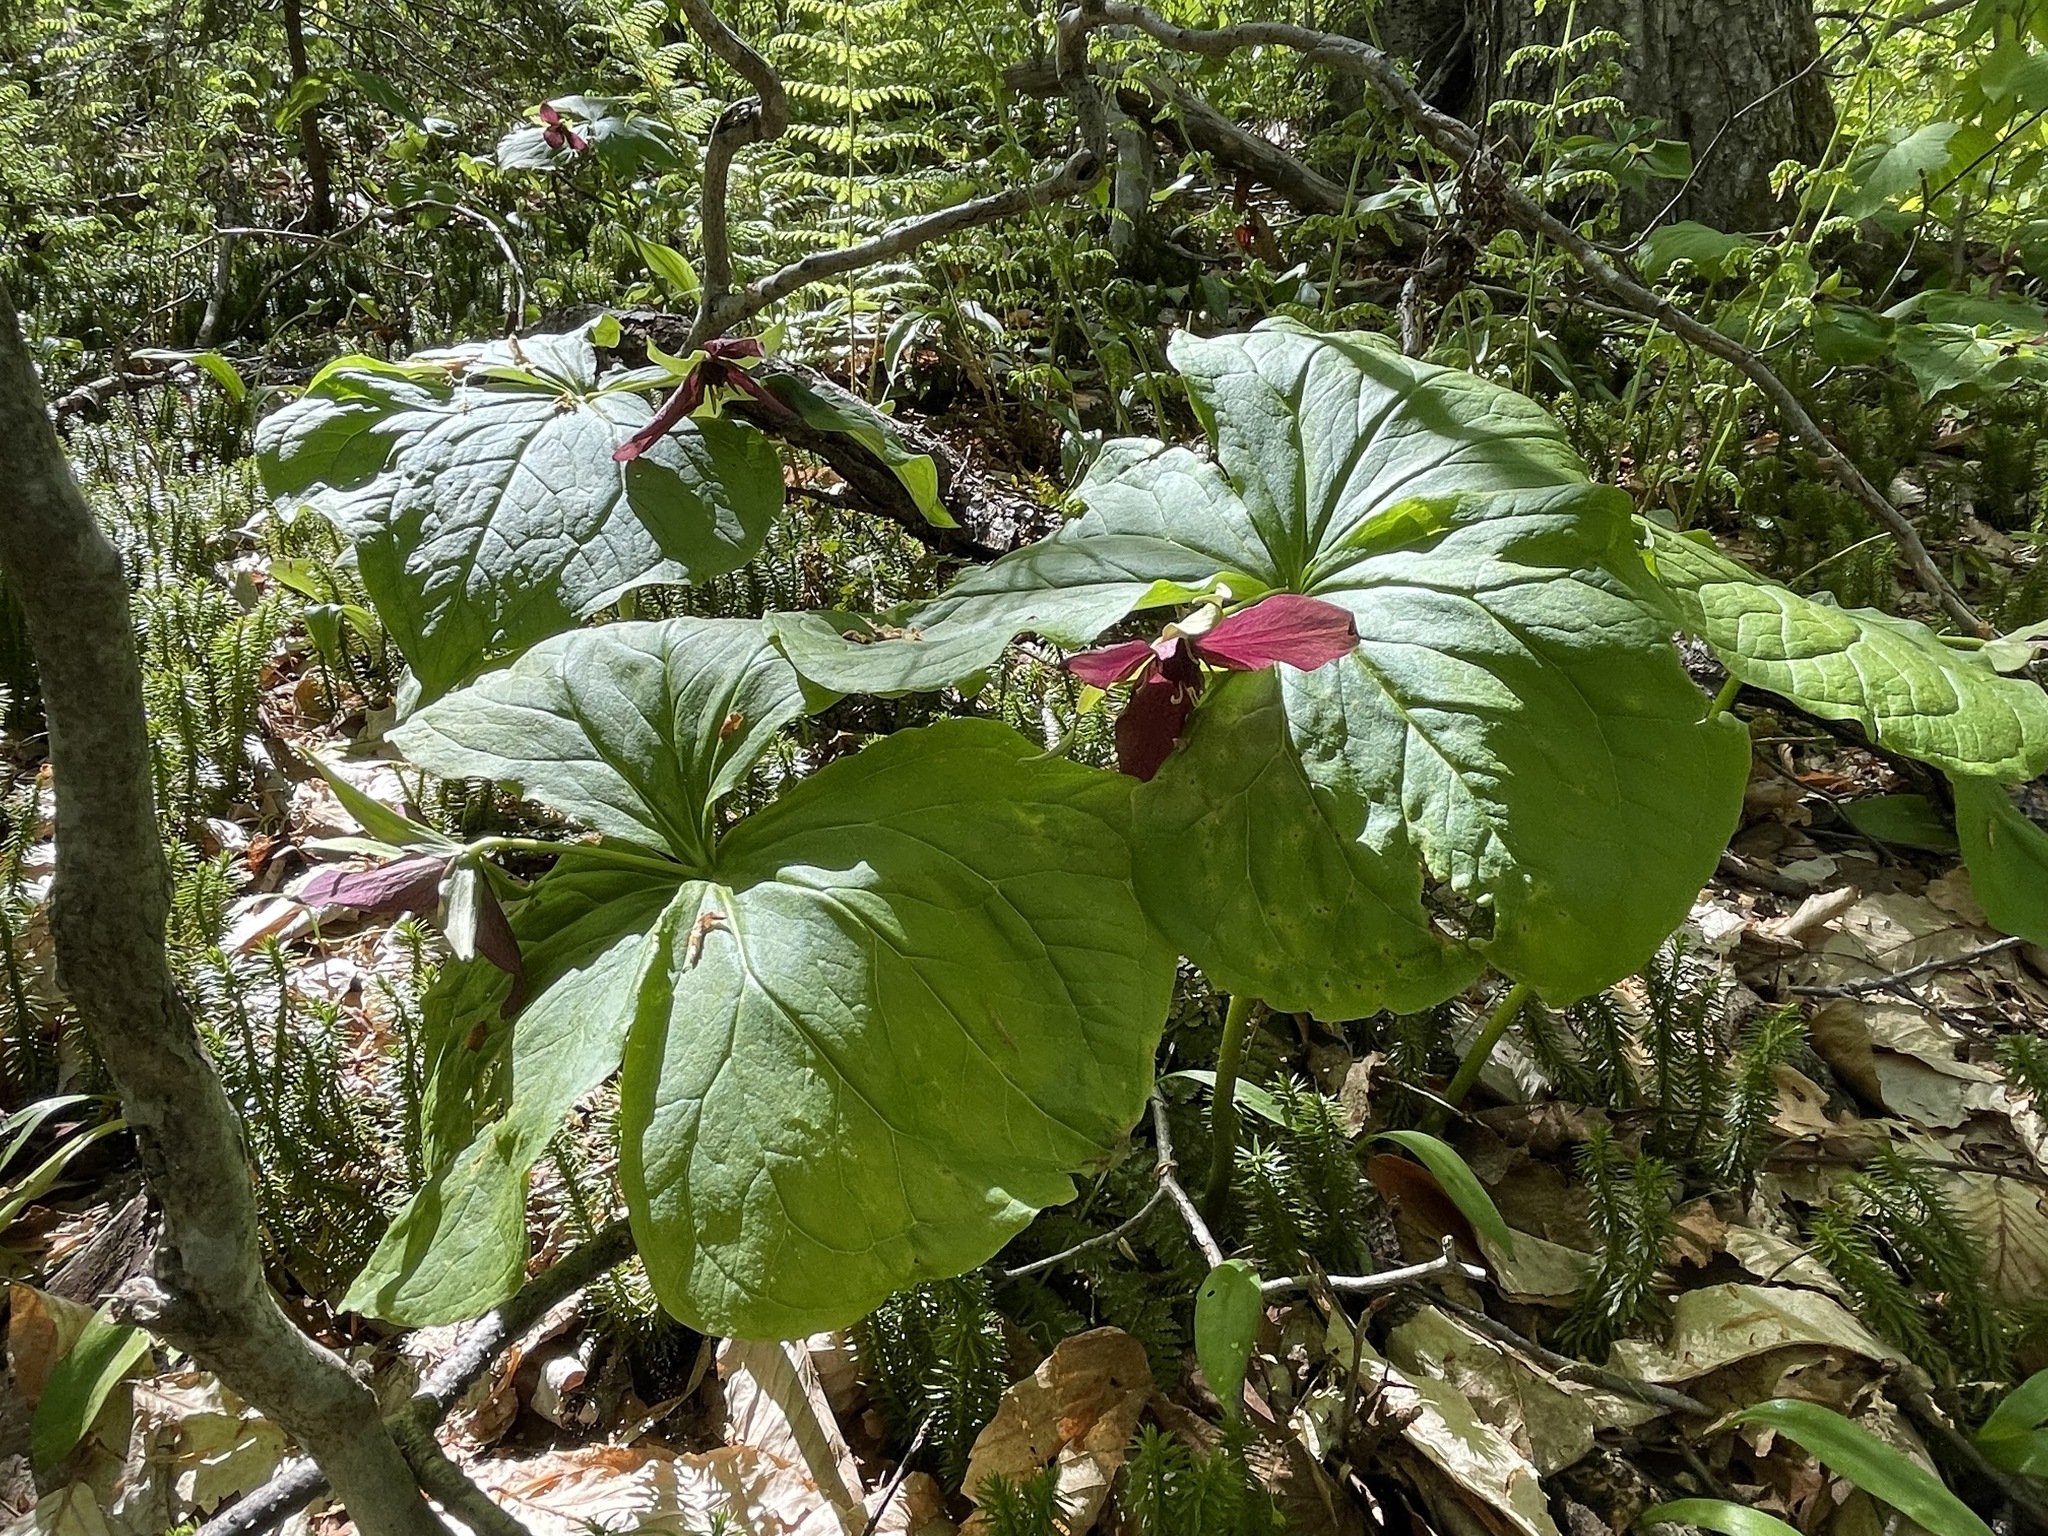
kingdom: Plantae
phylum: Tracheophyta
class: Liliopsida
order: Liliales
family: Melanthiaceae
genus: Trillium
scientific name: Trillium erectum
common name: Purple trillium
